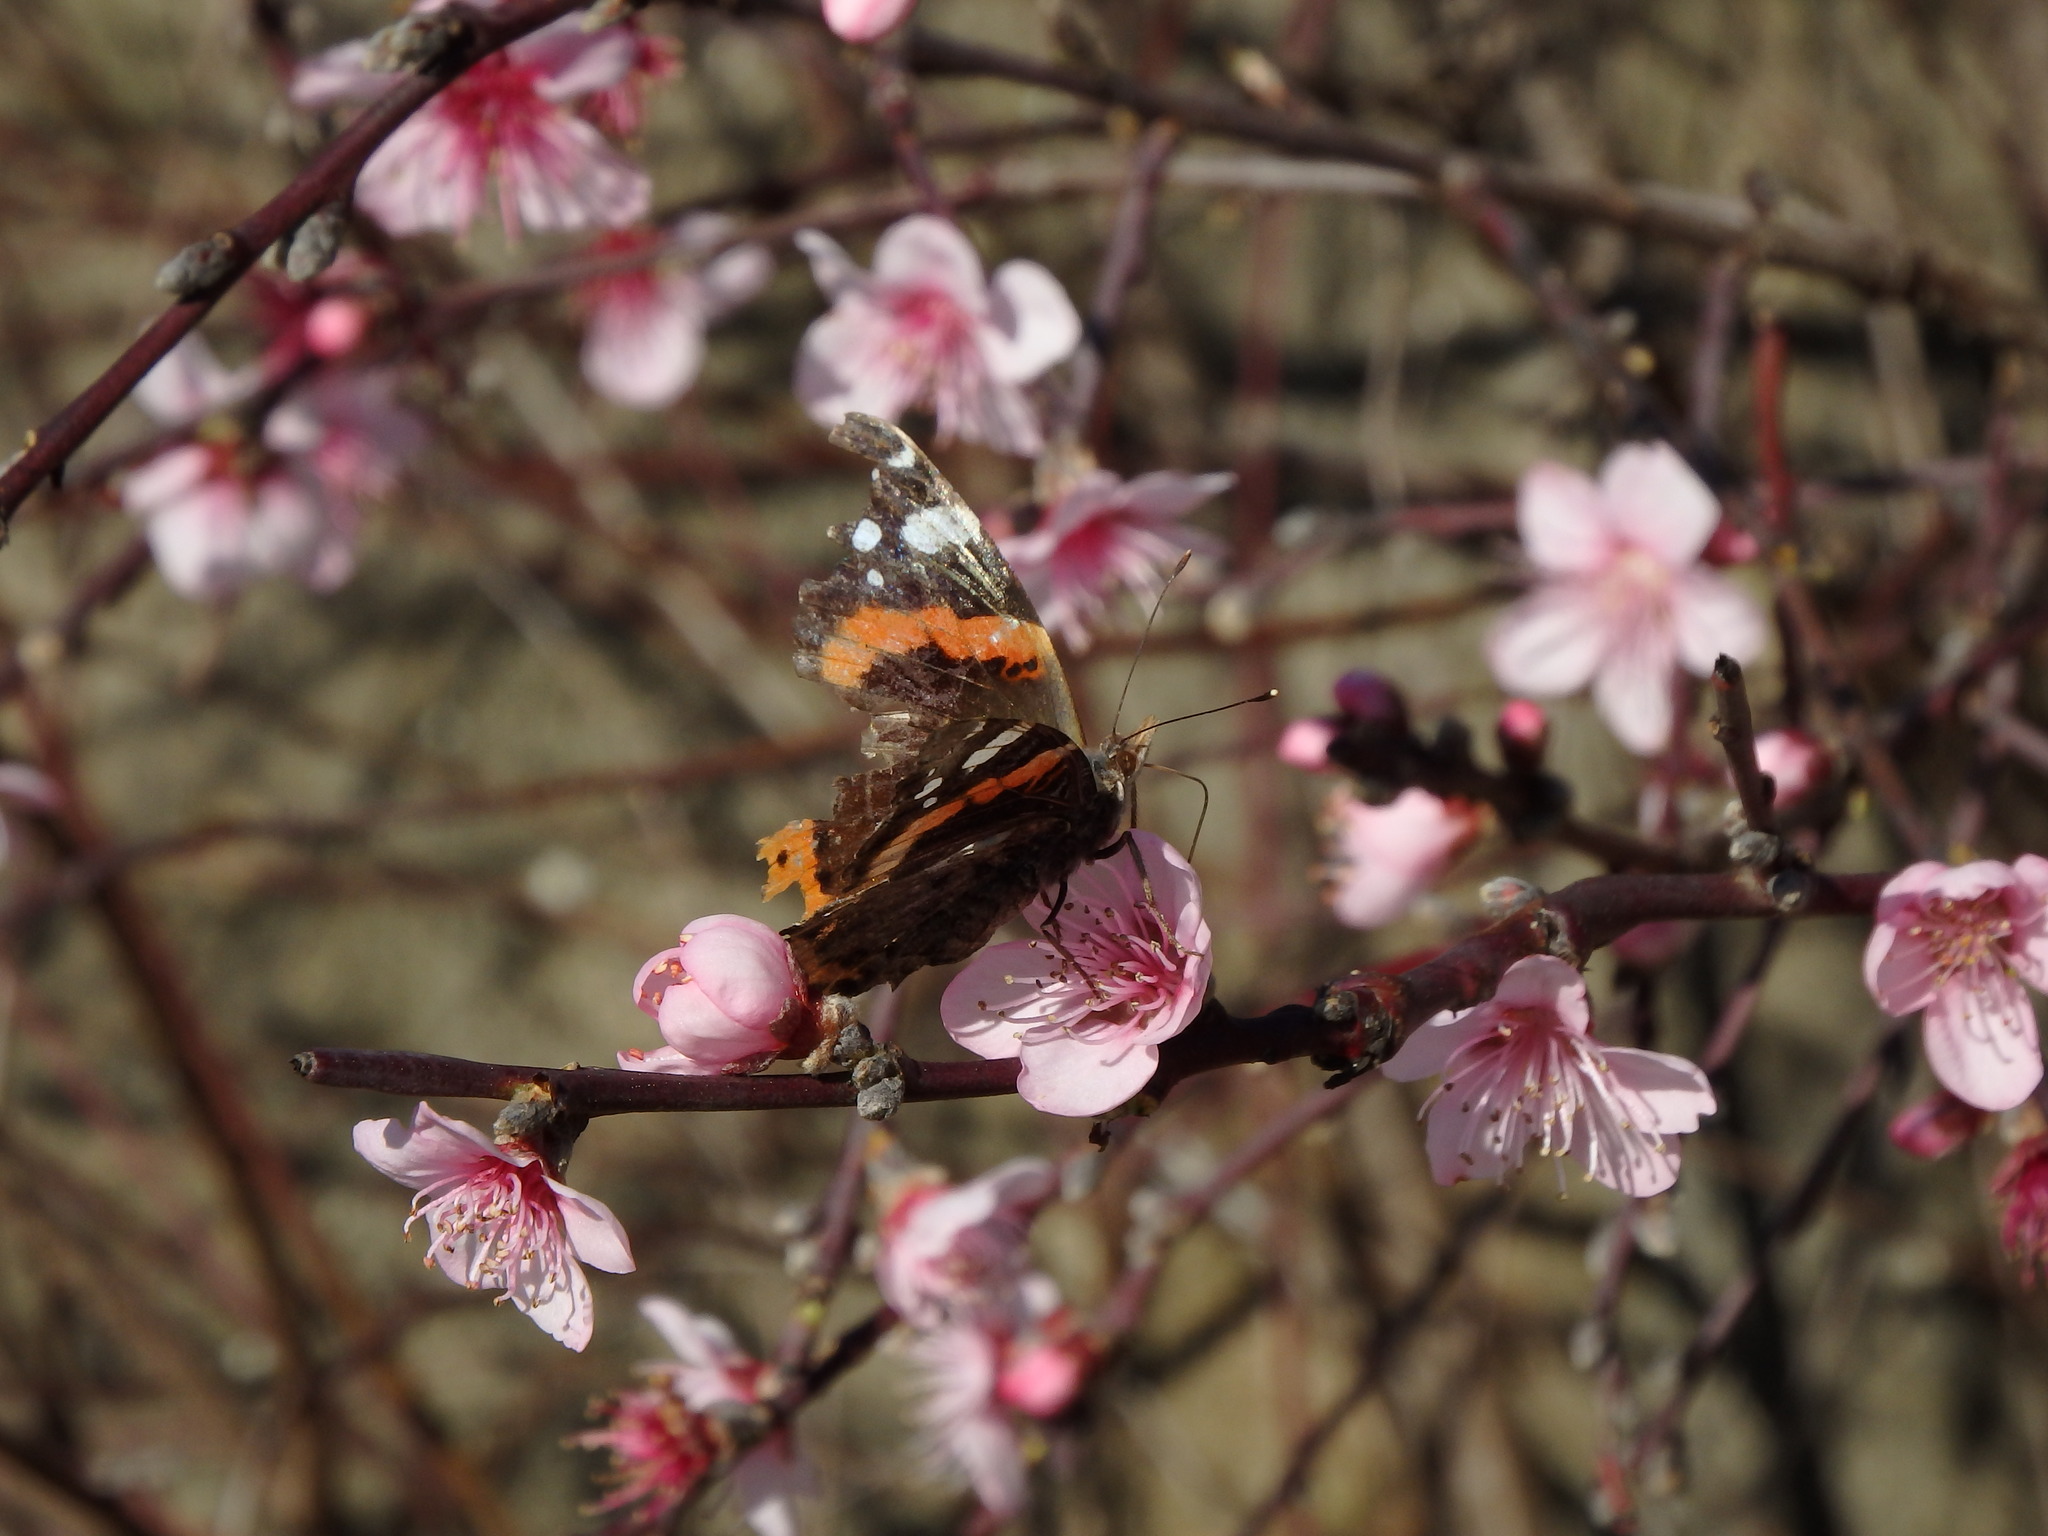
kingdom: Animalia
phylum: Arthropoda
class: Insecta
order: Lepidoptera
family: Nymphalidae
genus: Vanessa
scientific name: Vanessa atalanta
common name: Red admiral
